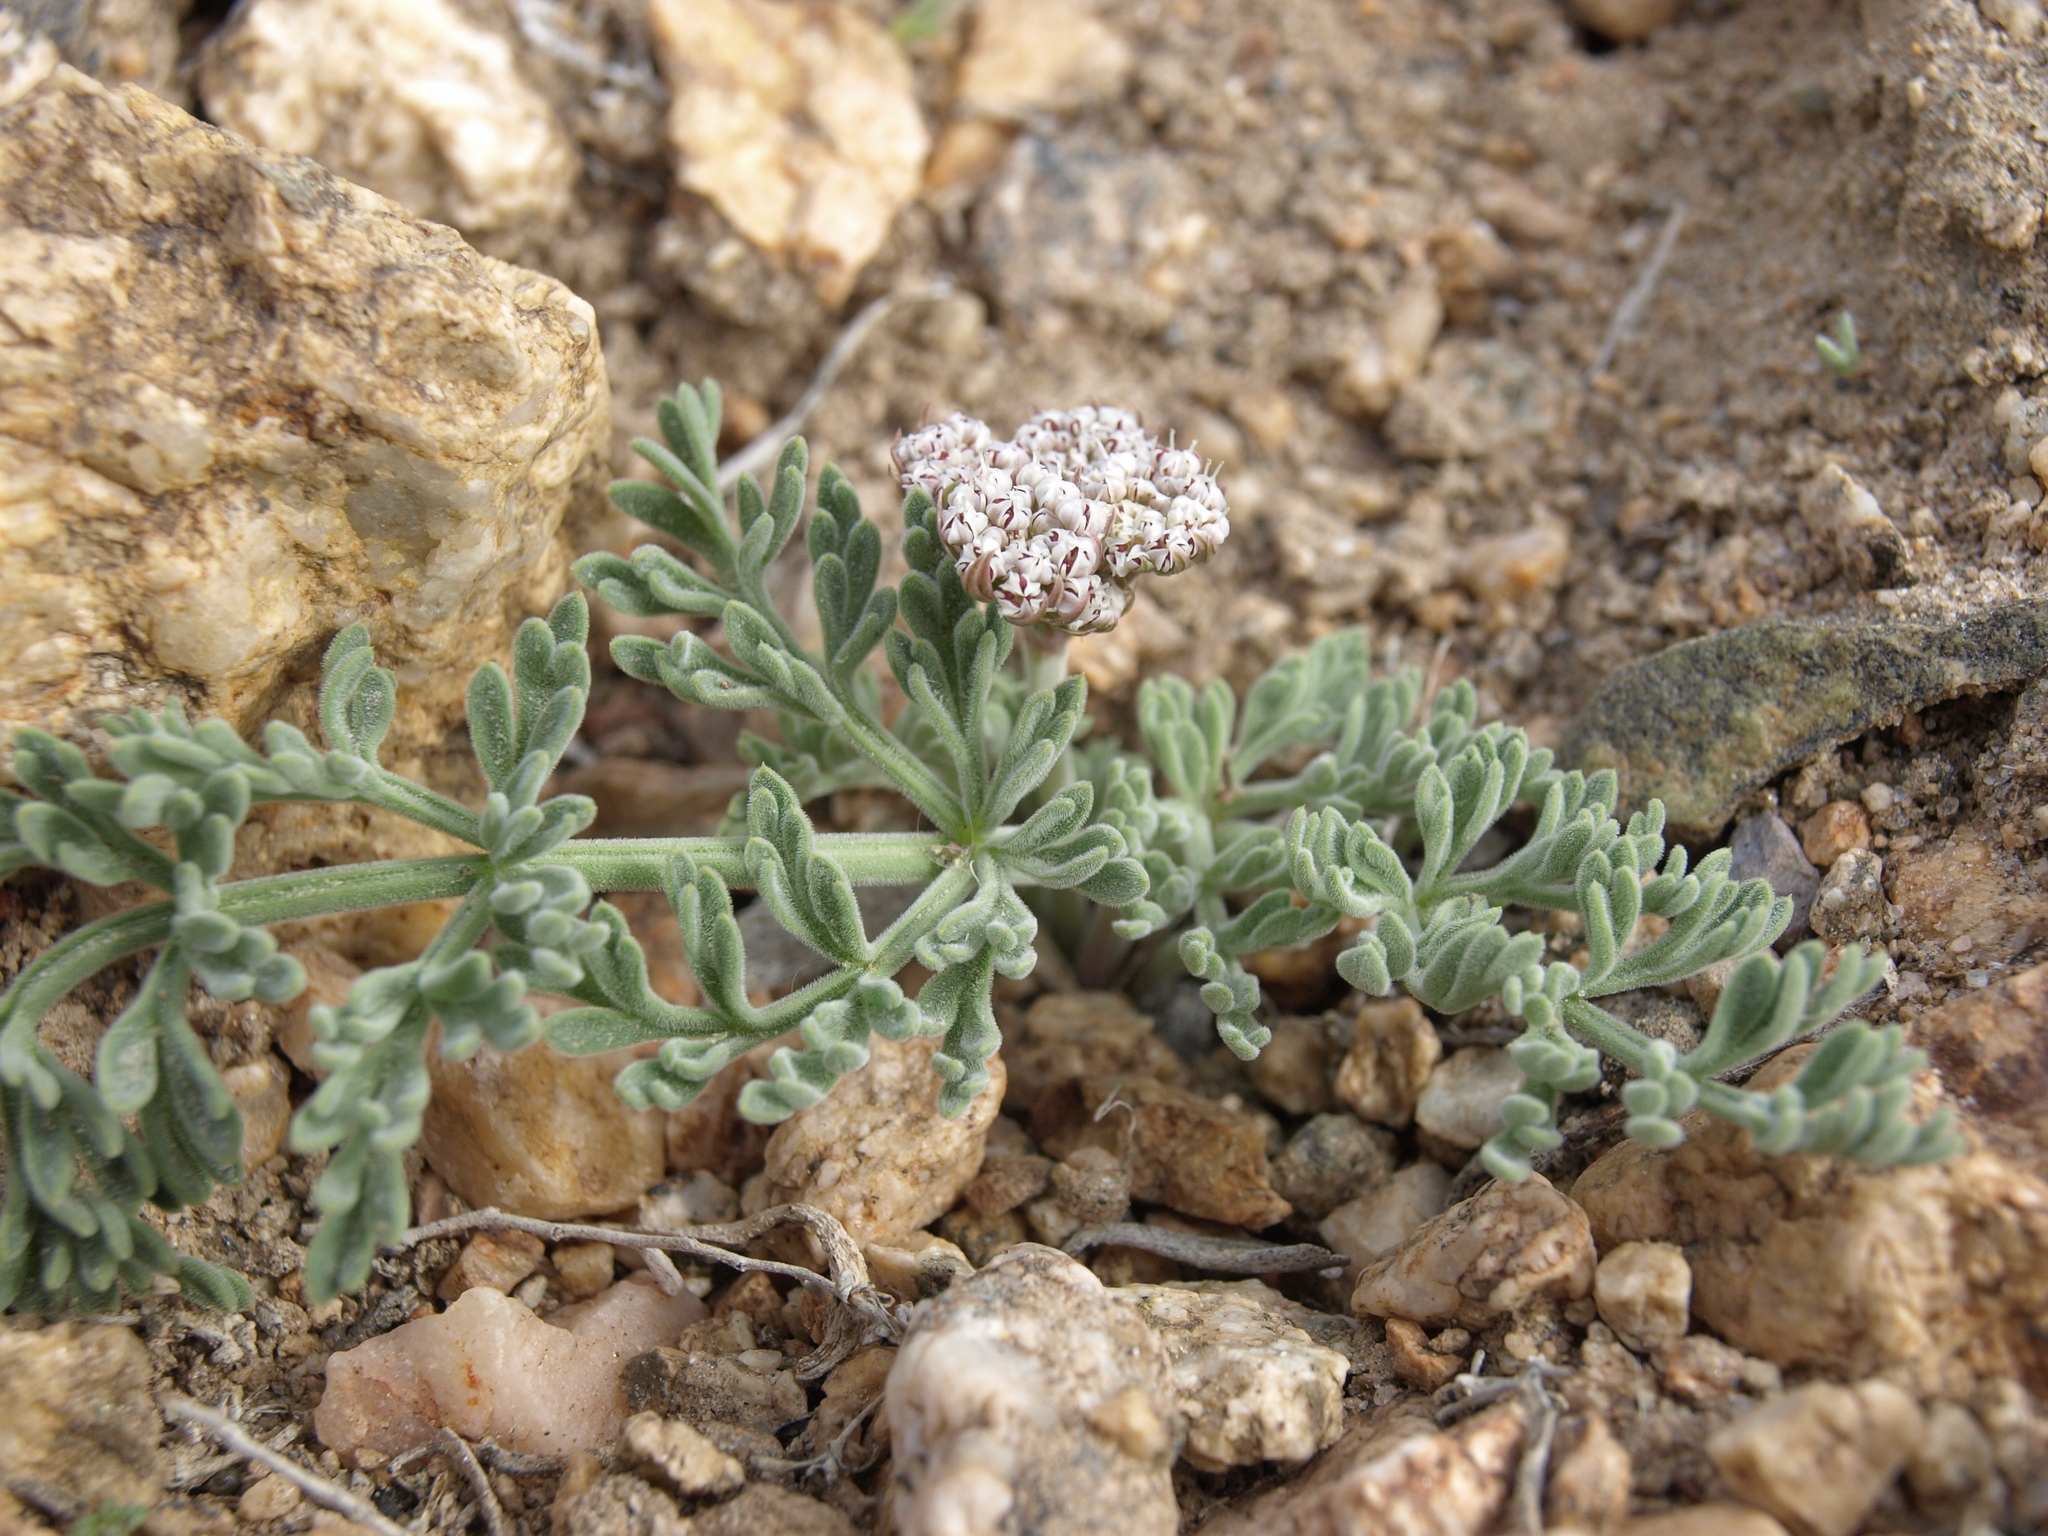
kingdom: Plantae
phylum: Tracheophyta
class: Magnoliopsida
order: Apiales
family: Apiaceae
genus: Lomatium
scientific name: Lomatium nevadense
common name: Nevada lomatium
